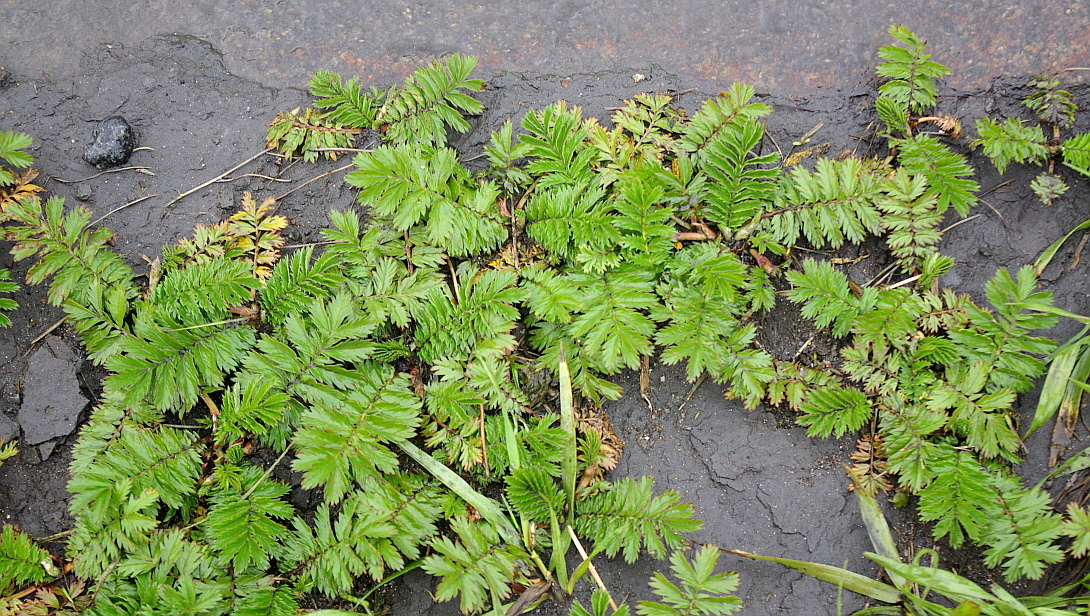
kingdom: Plantae
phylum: Tracheophyta
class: Magnoliopsida
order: Rosales
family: Rosaceae
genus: Argentina
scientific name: Argentina anserina
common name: Common silverweed
